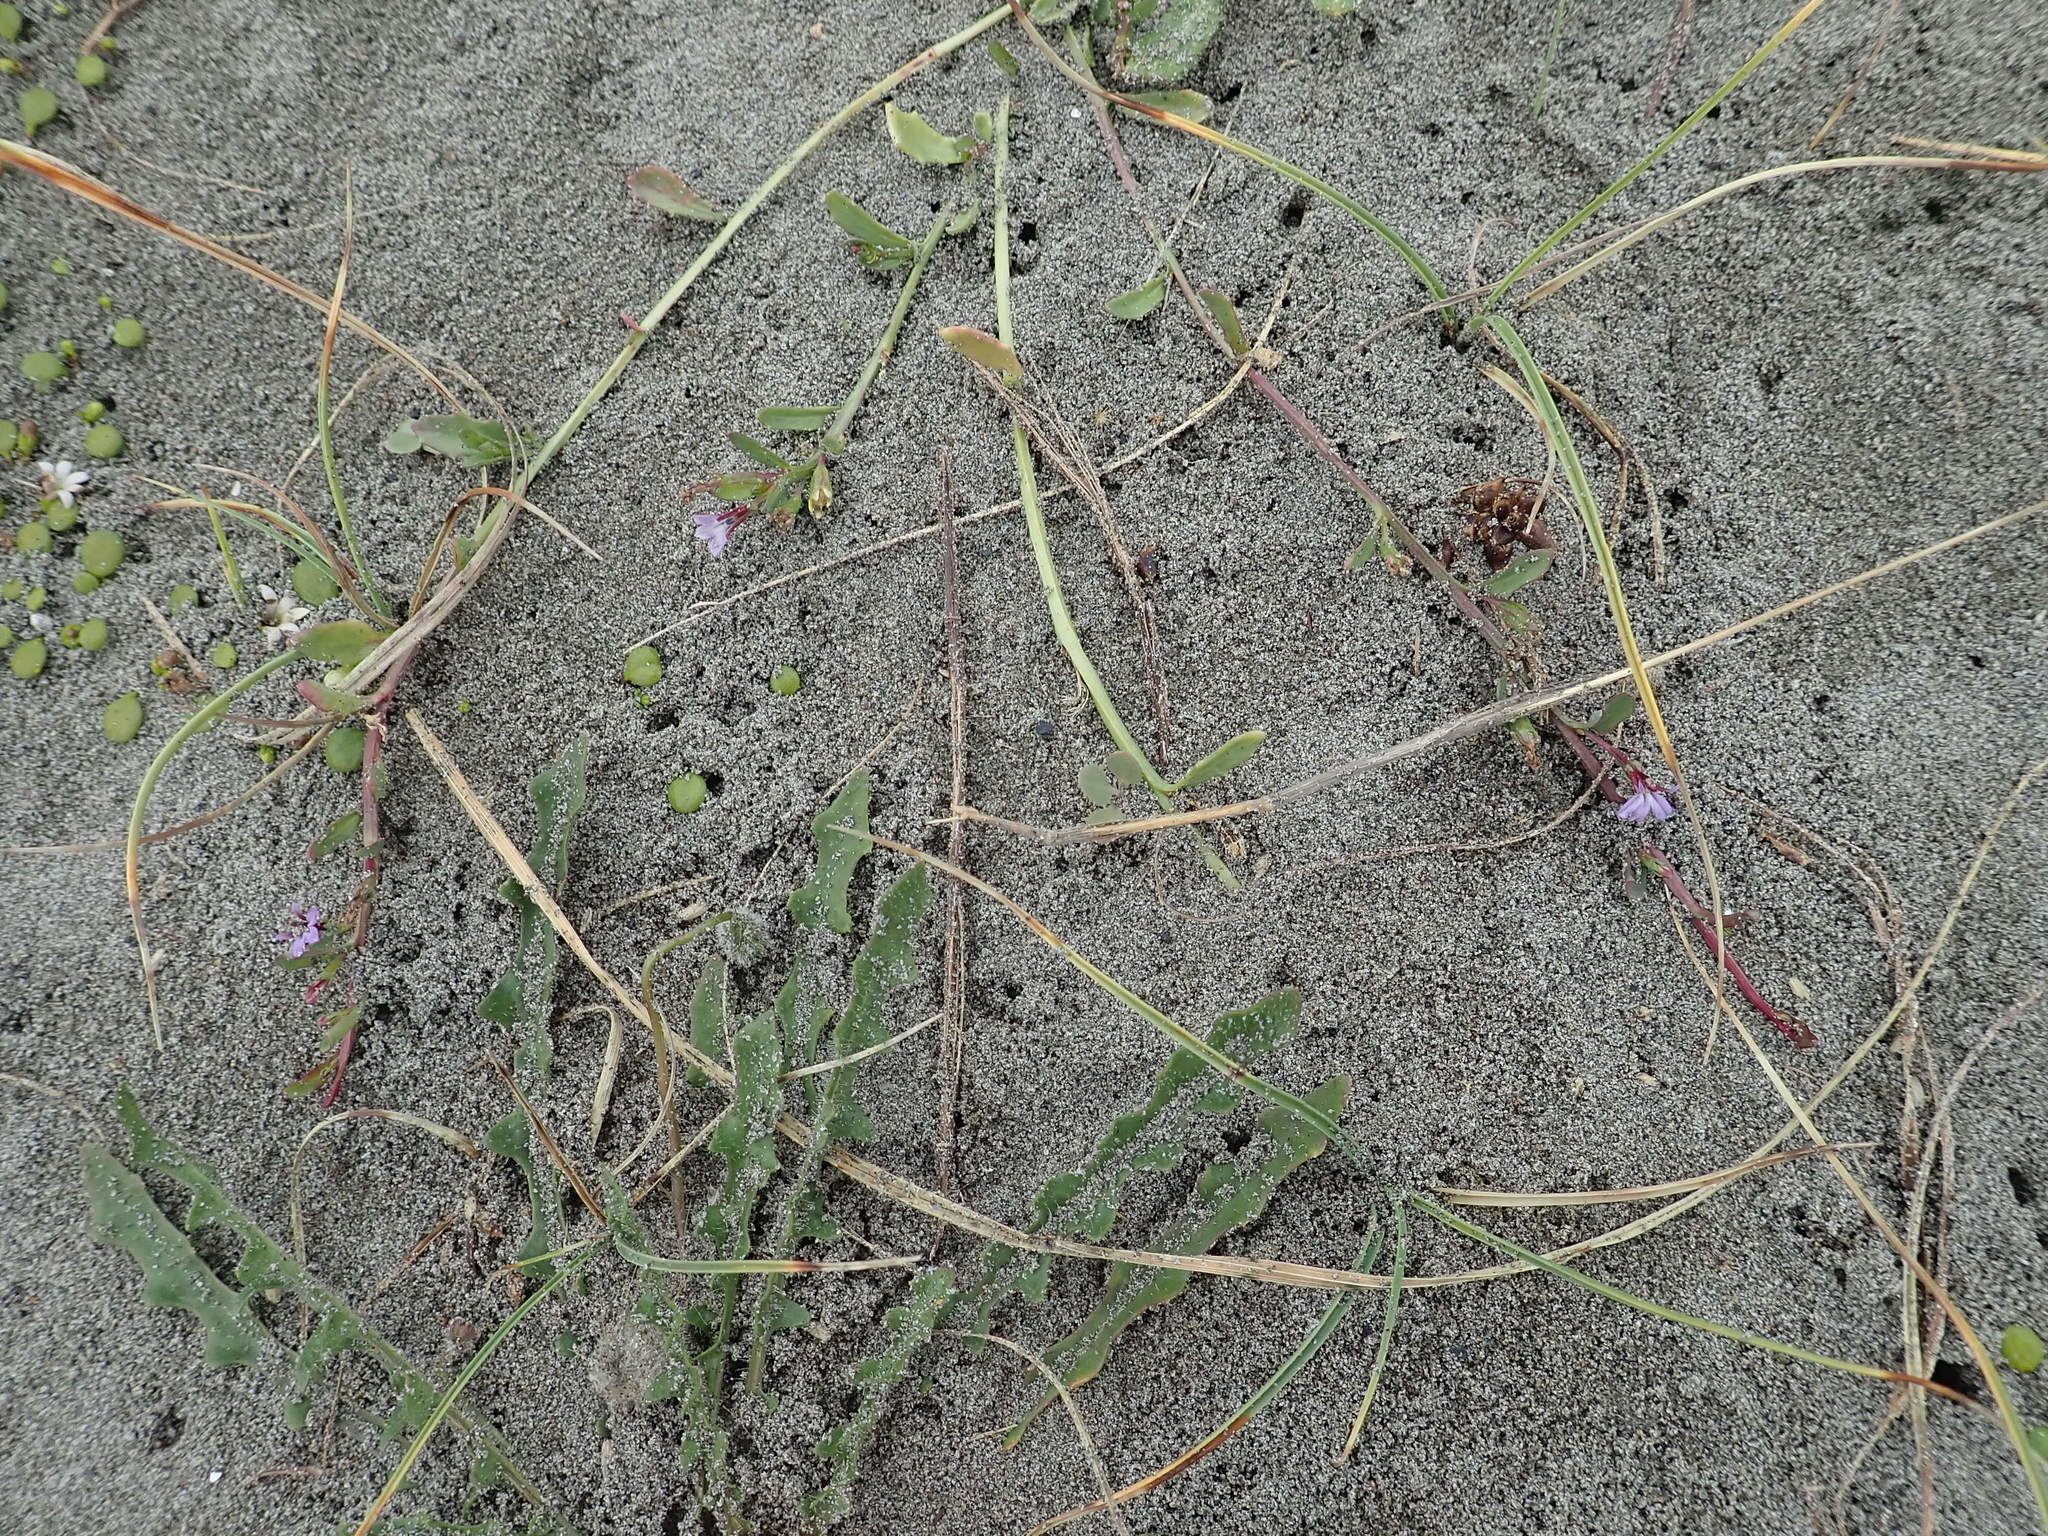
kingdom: Plantae
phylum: Tracheophyta
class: Magnoliopsida
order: Asterales
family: Campanulaceae
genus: Lobelia
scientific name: Lobelia anceps
